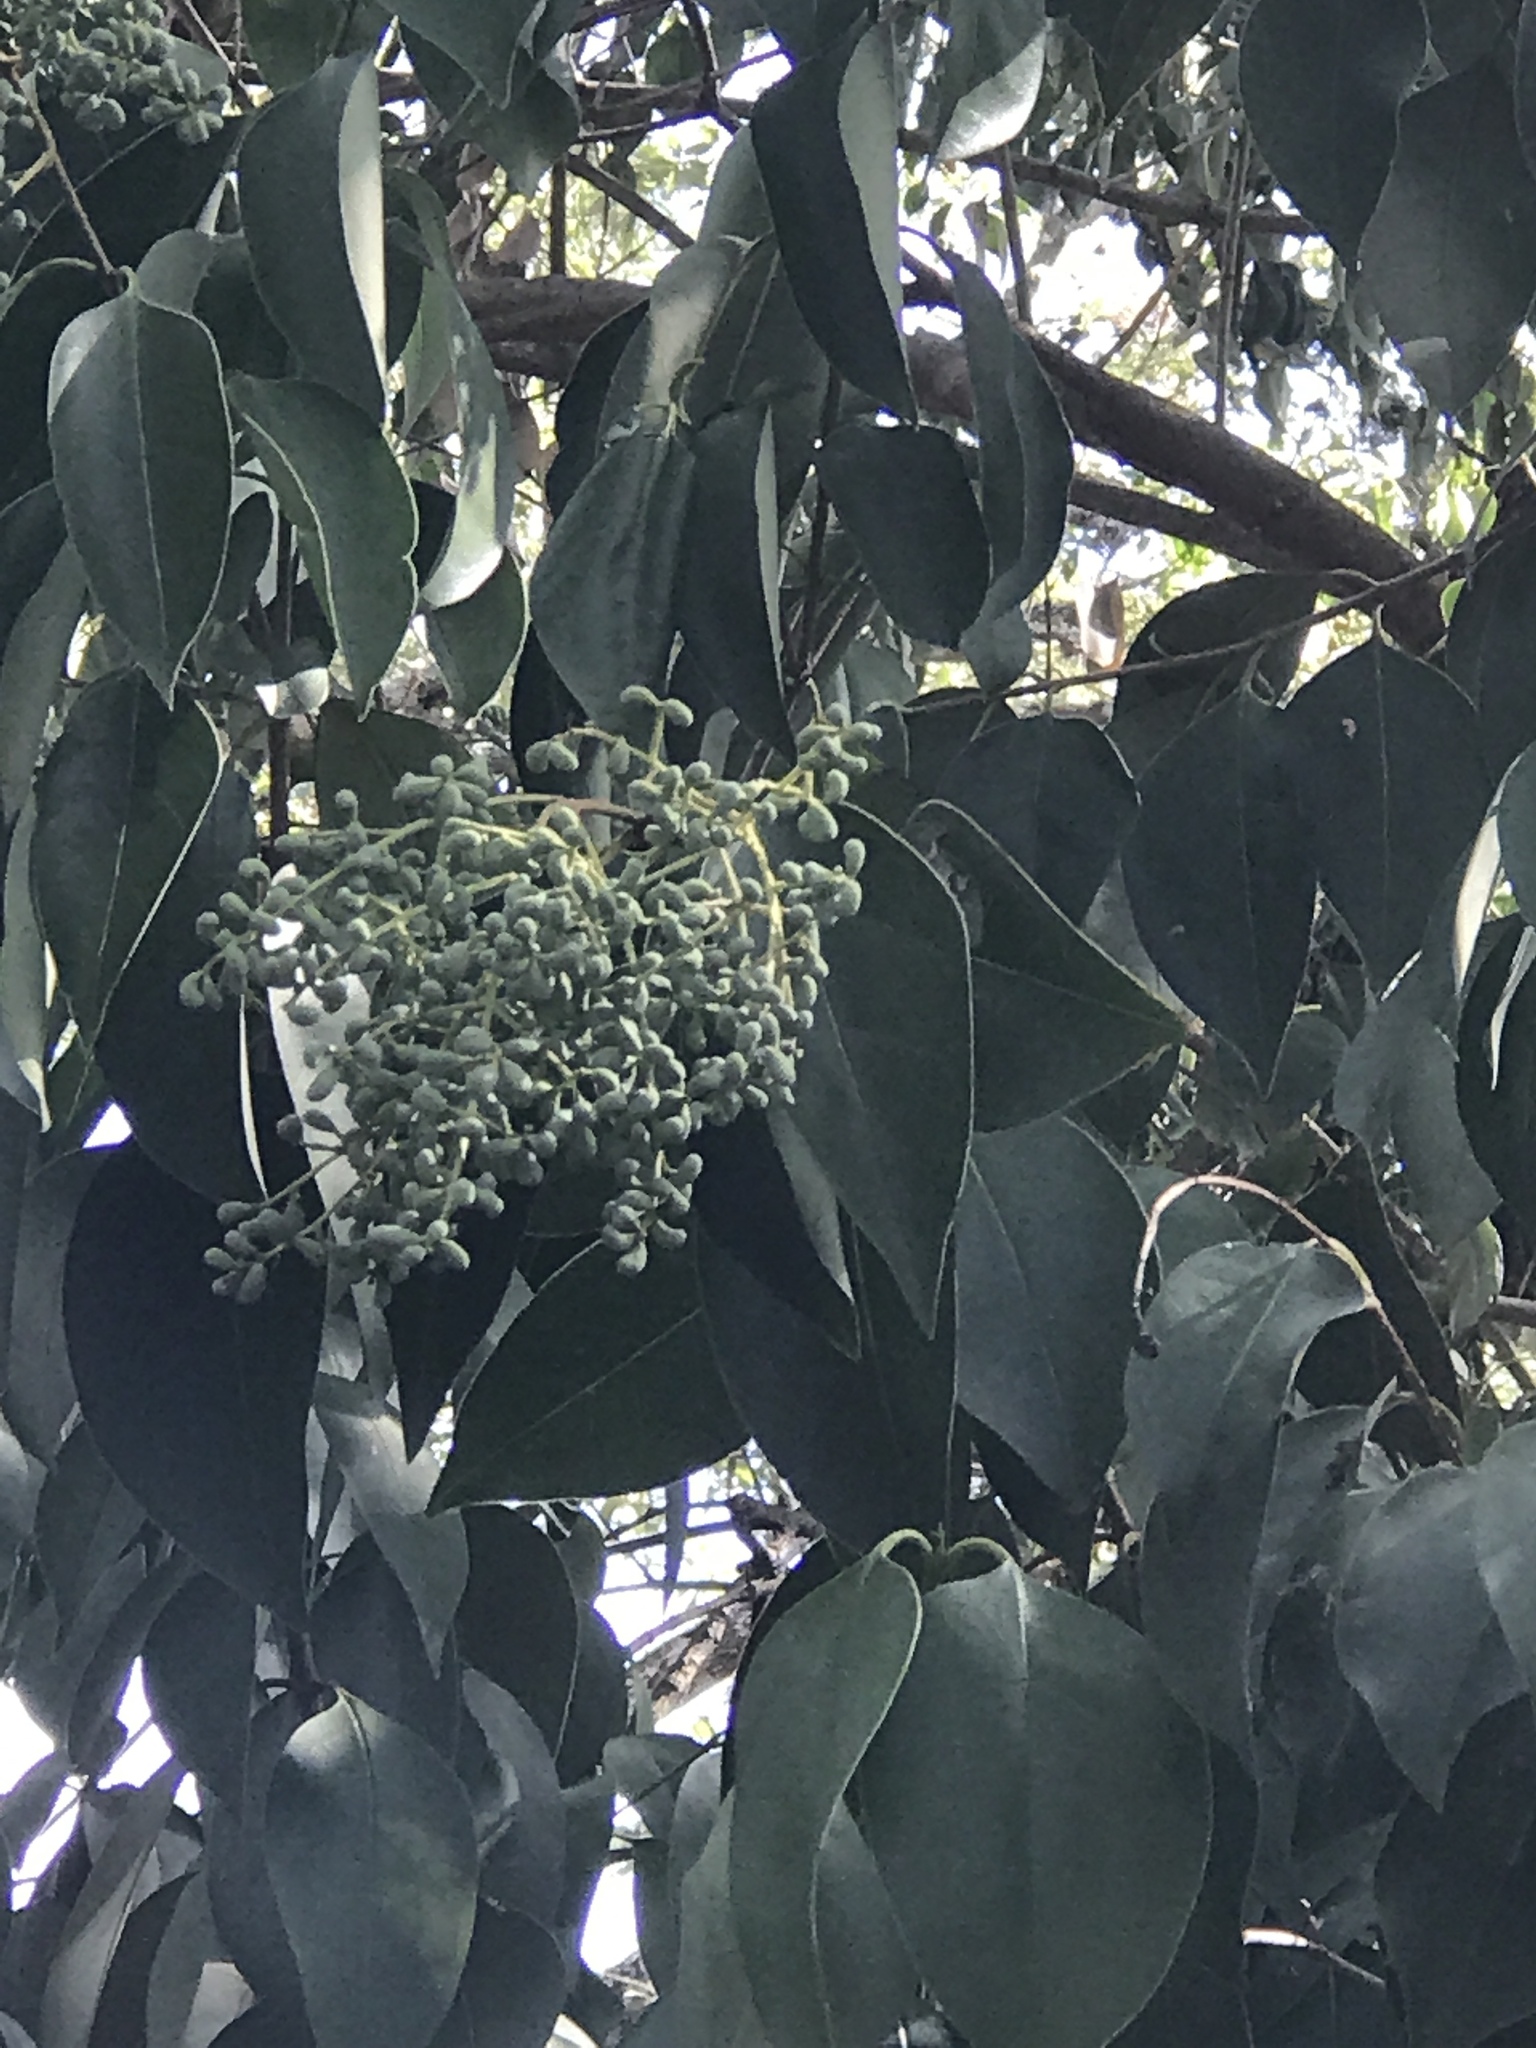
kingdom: Plantae
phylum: Tracheophyta
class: Magnoliopsida
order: Lamiales
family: Oleaceae
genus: Ligustrum
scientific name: Ligustrum lucidum
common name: Glossy privet
